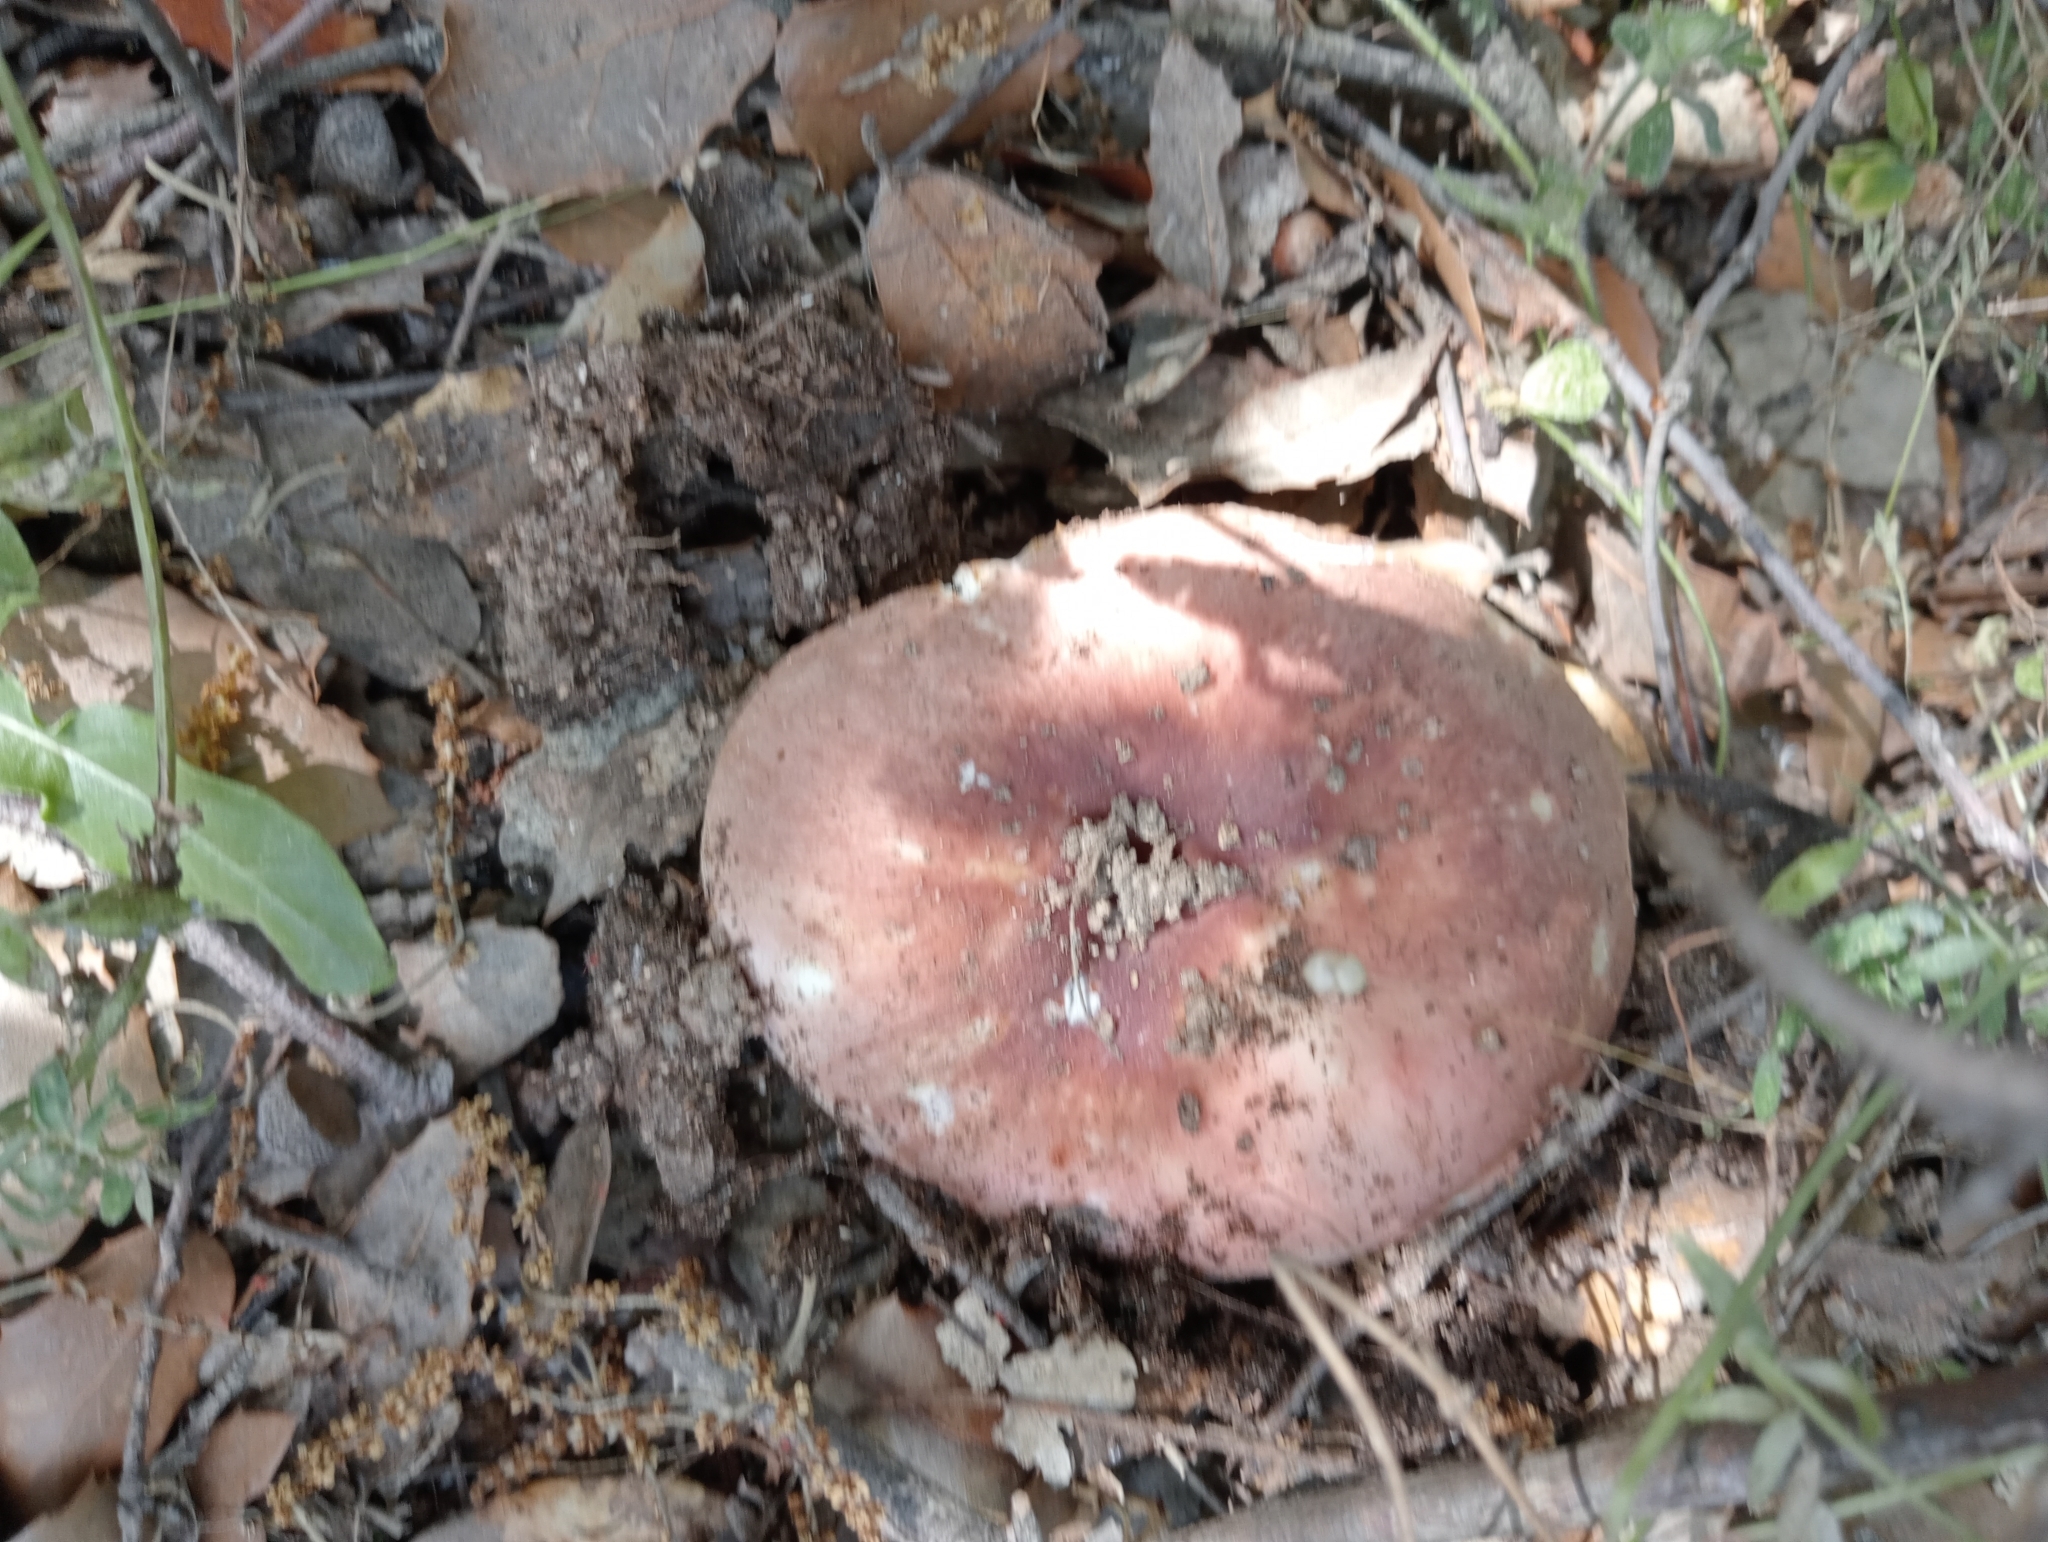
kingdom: Fungi
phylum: Basidiomycota
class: Agaricomycetes
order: Russulales
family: Russulaceae
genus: Russula
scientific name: Russula vesca
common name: Bare-toothed russula
